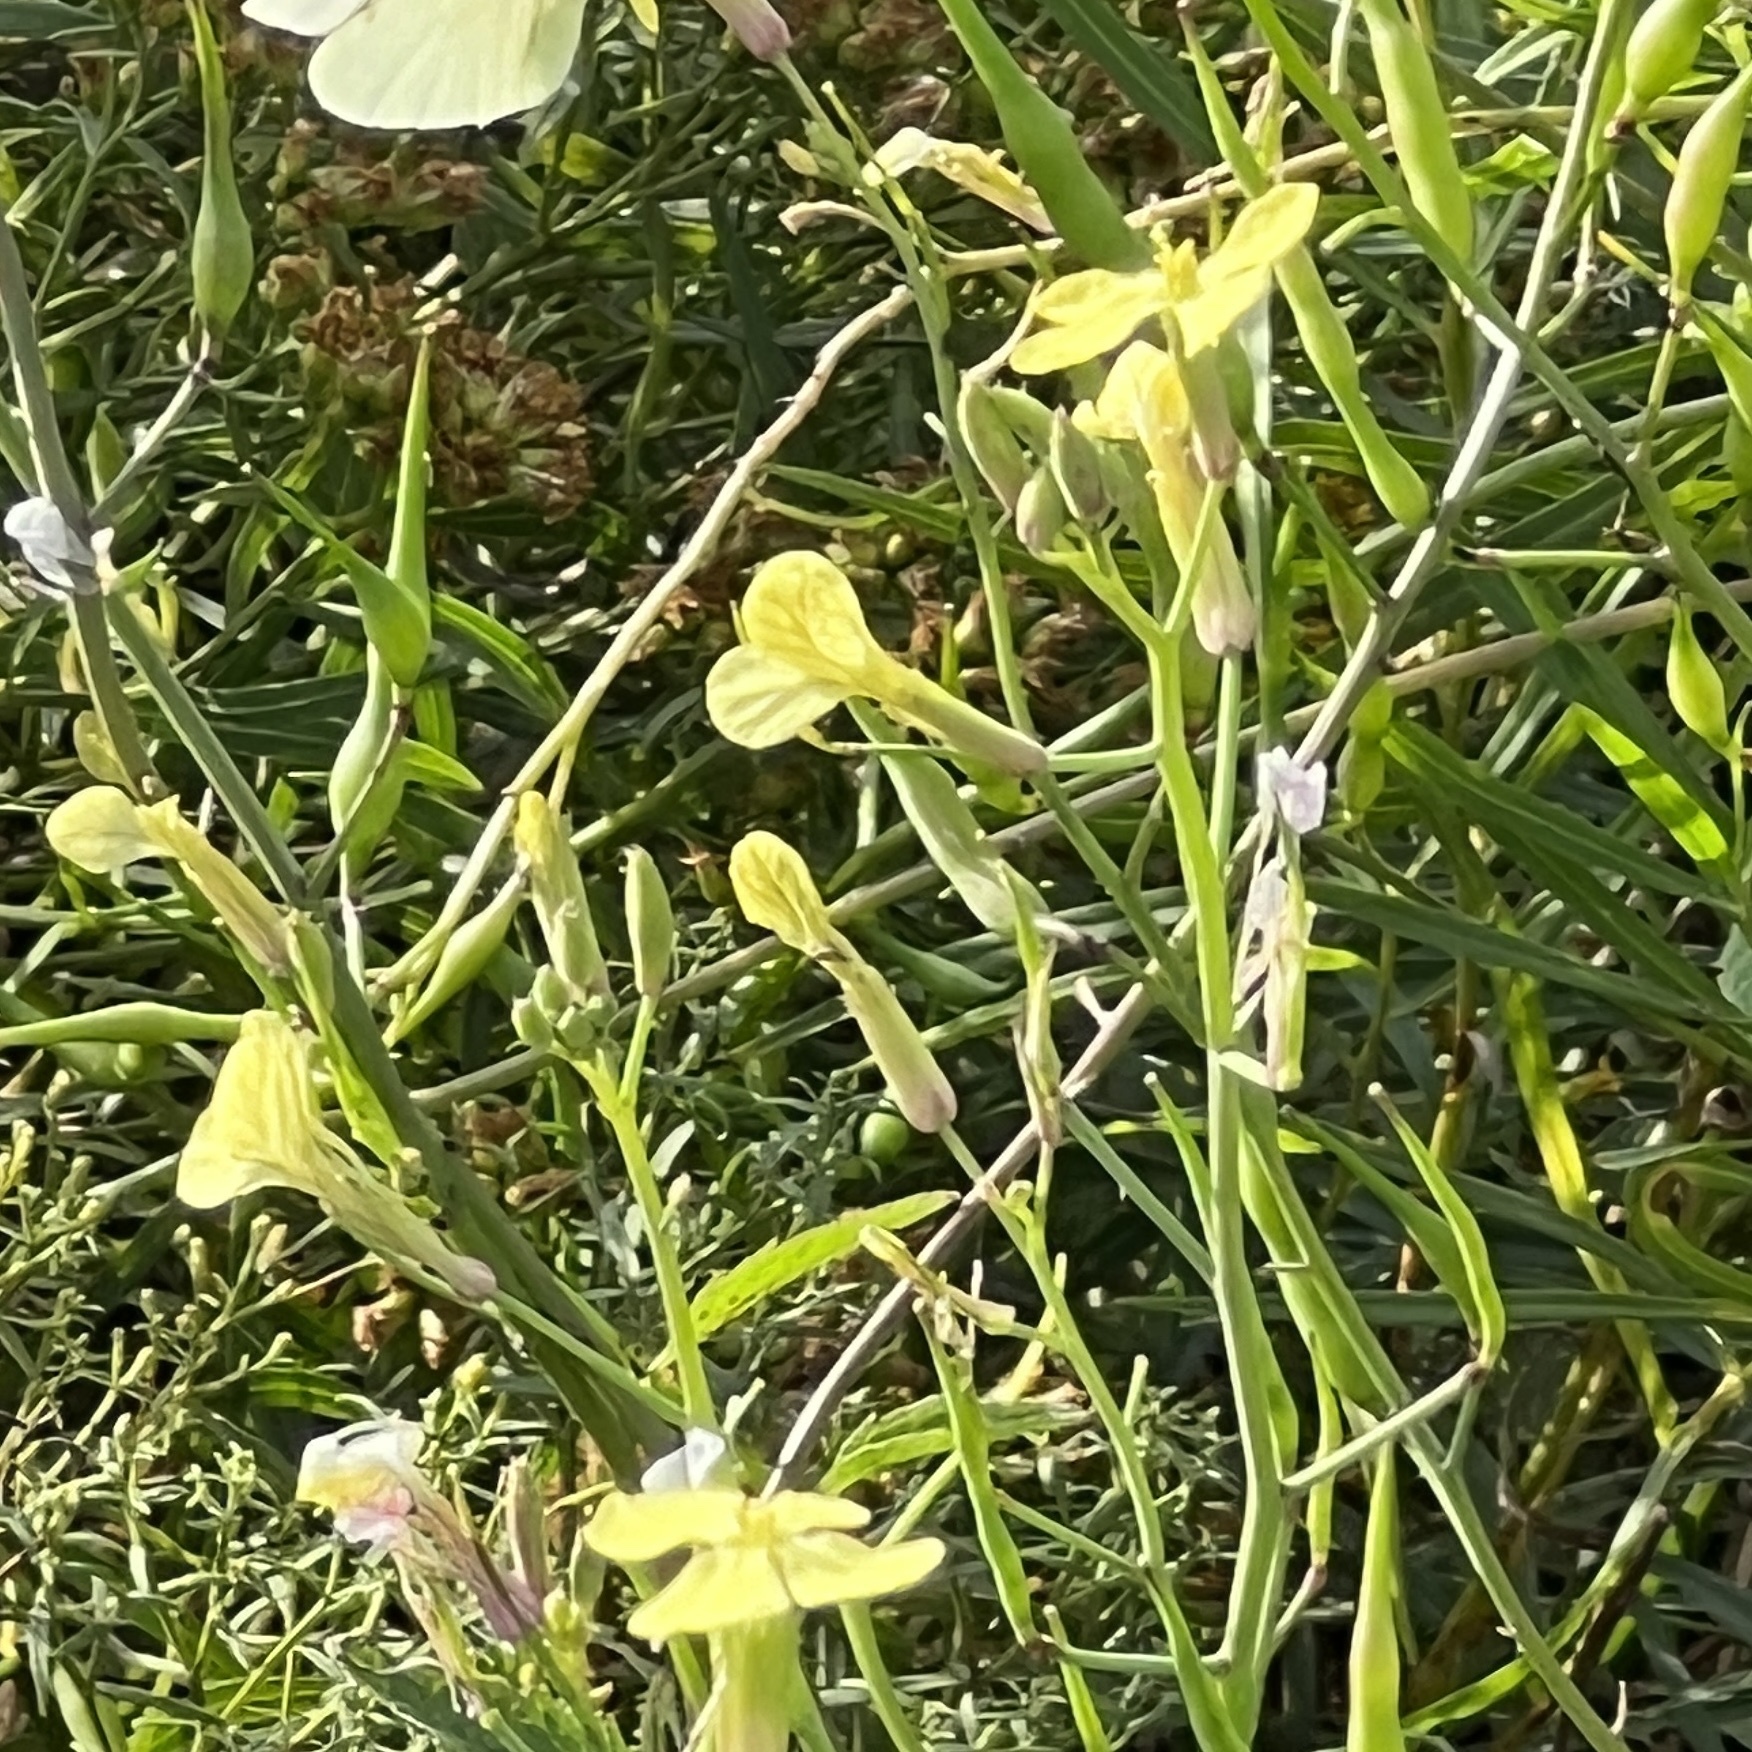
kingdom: Plantae
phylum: Tracheophyta
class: Magnoliopsida
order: Brassicales
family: Brassicaceae
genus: Raphanus
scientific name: Raphanus raphanistrum
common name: Wild radish
